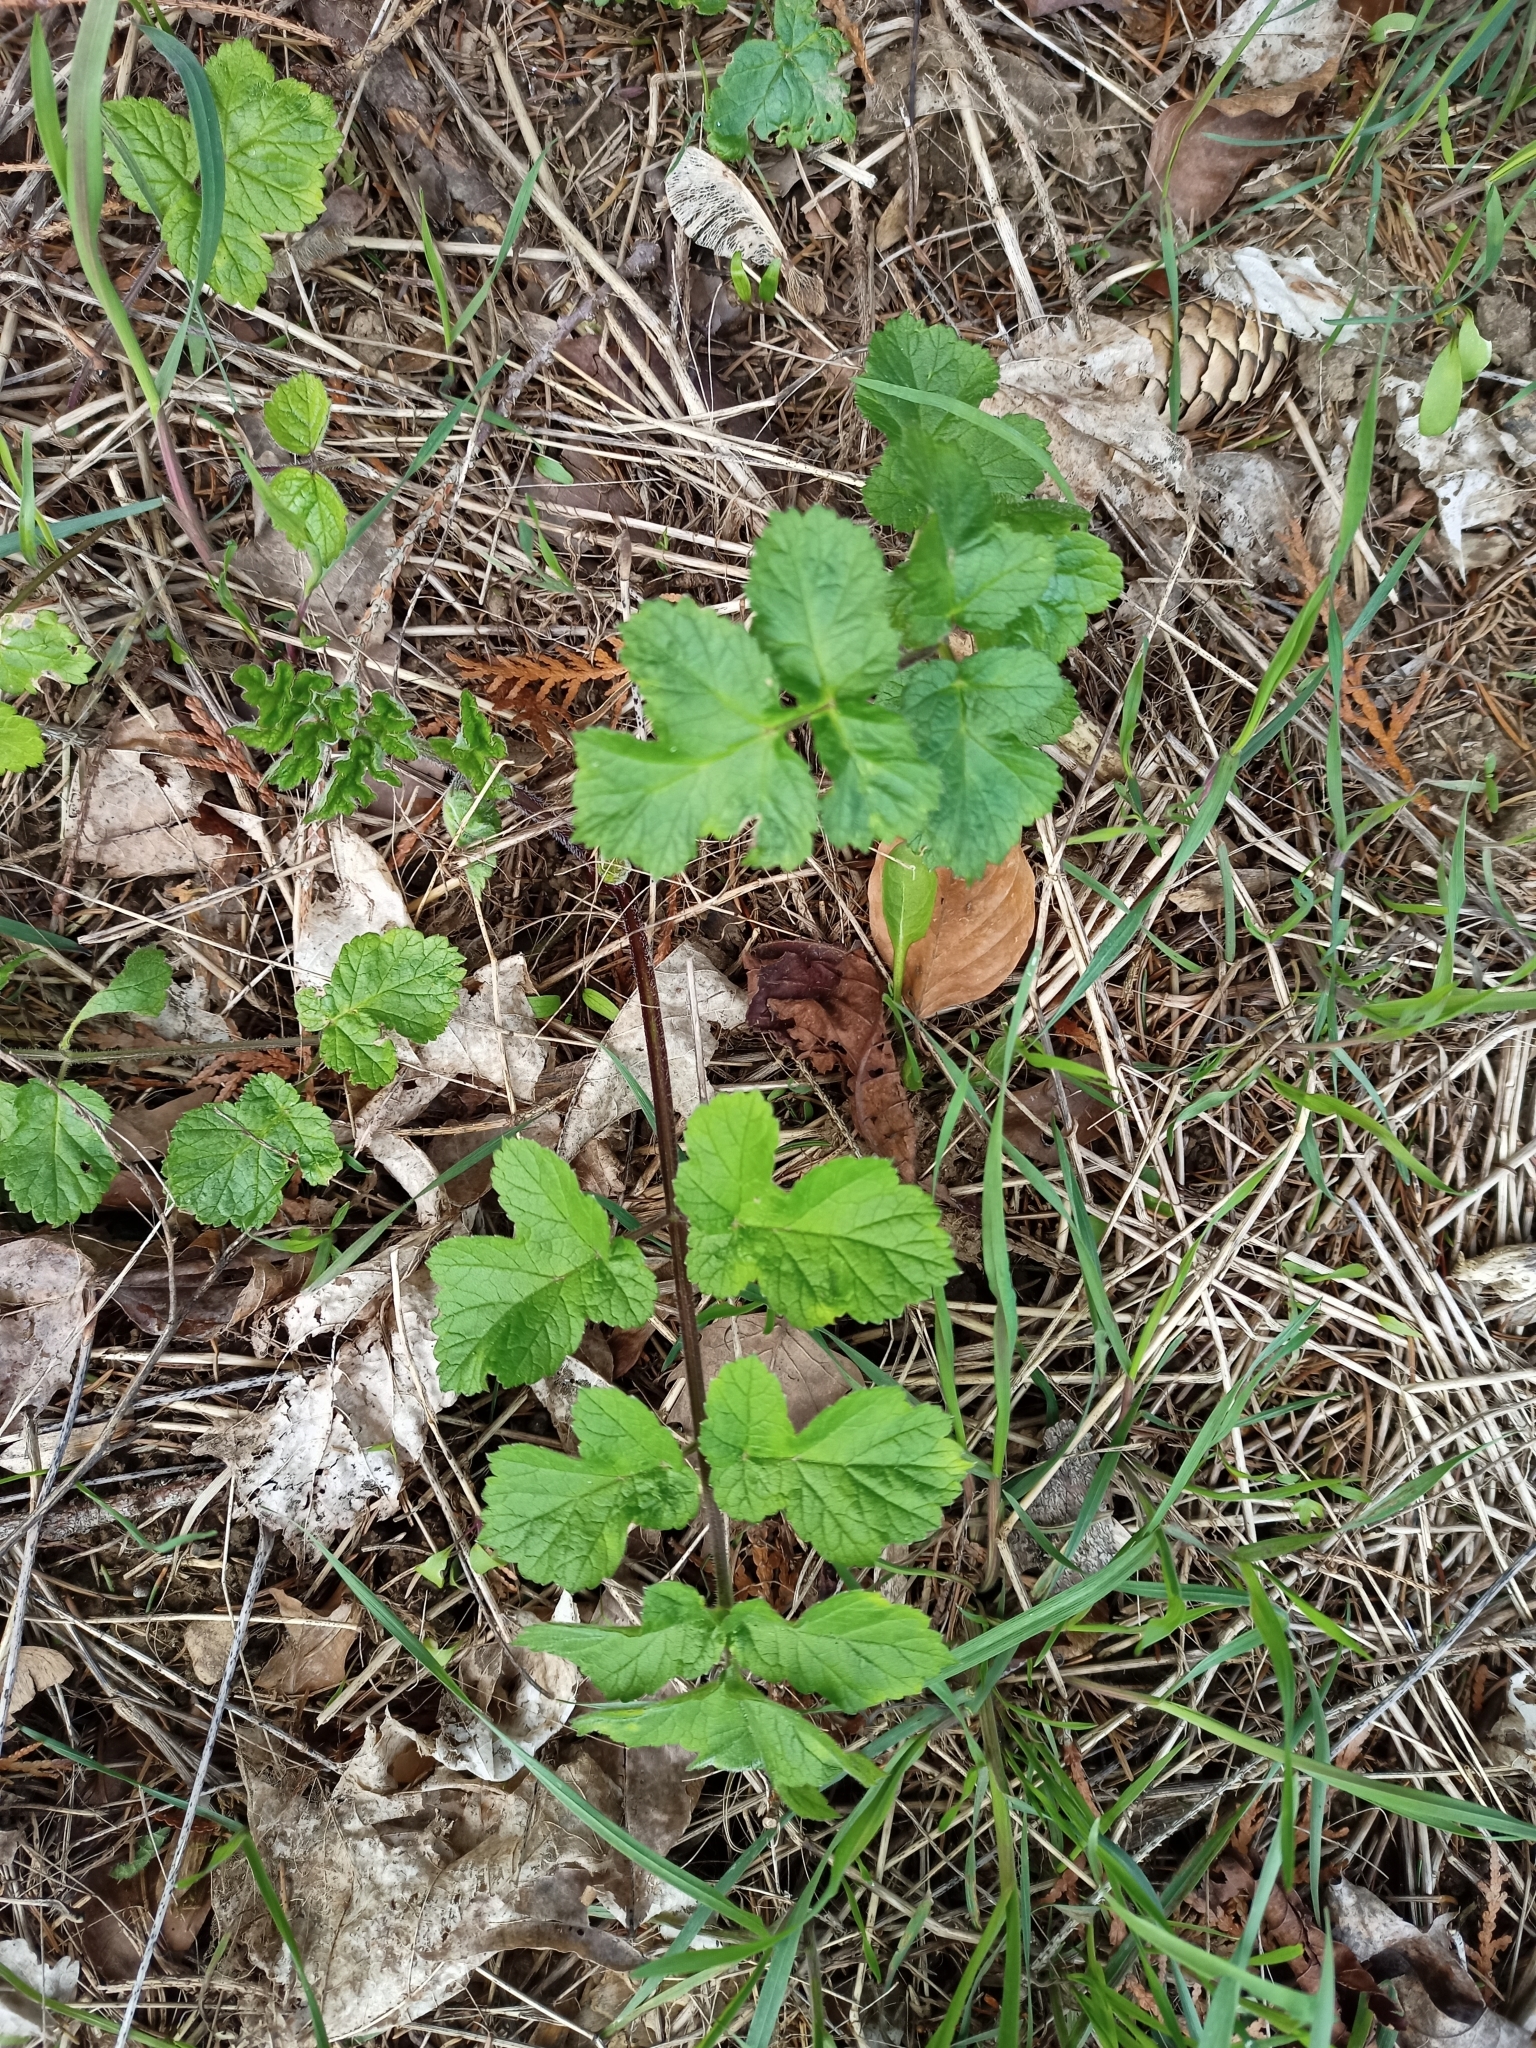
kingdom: Plantae
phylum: Tracheophyta
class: Magnoliopsida
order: Apiales
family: Apiaceae
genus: Heracleum
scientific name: Heracleum sphondylium
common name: Hogweed
